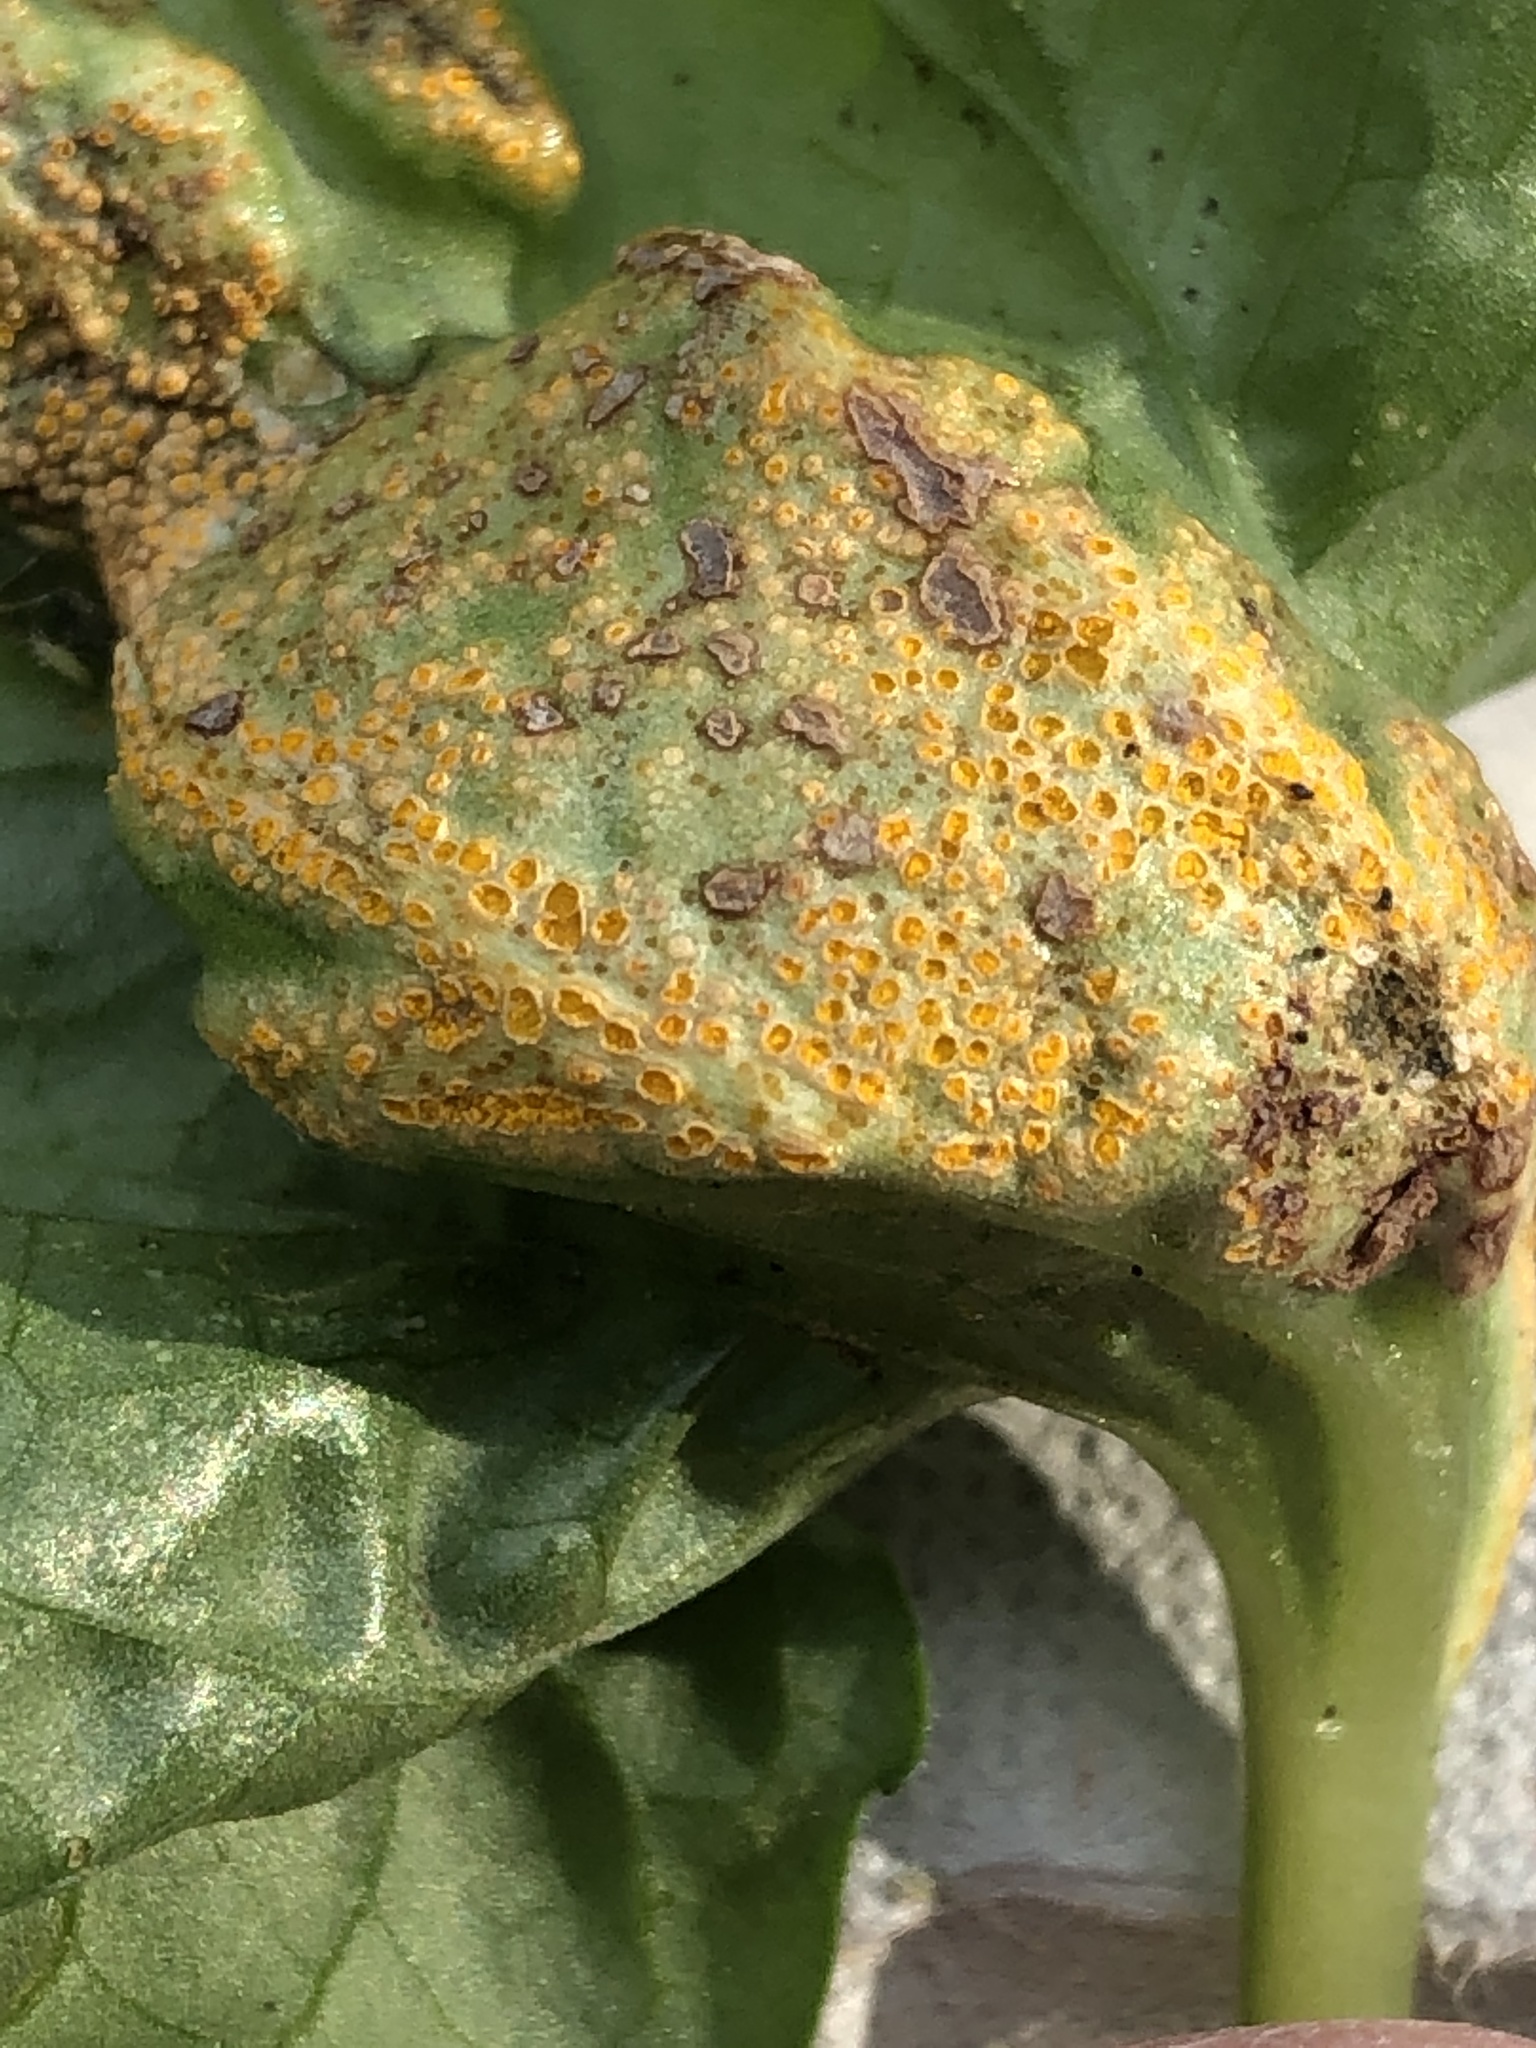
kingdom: Fungi
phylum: Basidiomycota
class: Pucciniomycetes
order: Pucciniales
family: Pucciniaceae
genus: Puccinia
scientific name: Puccinia violae
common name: Violet rust
